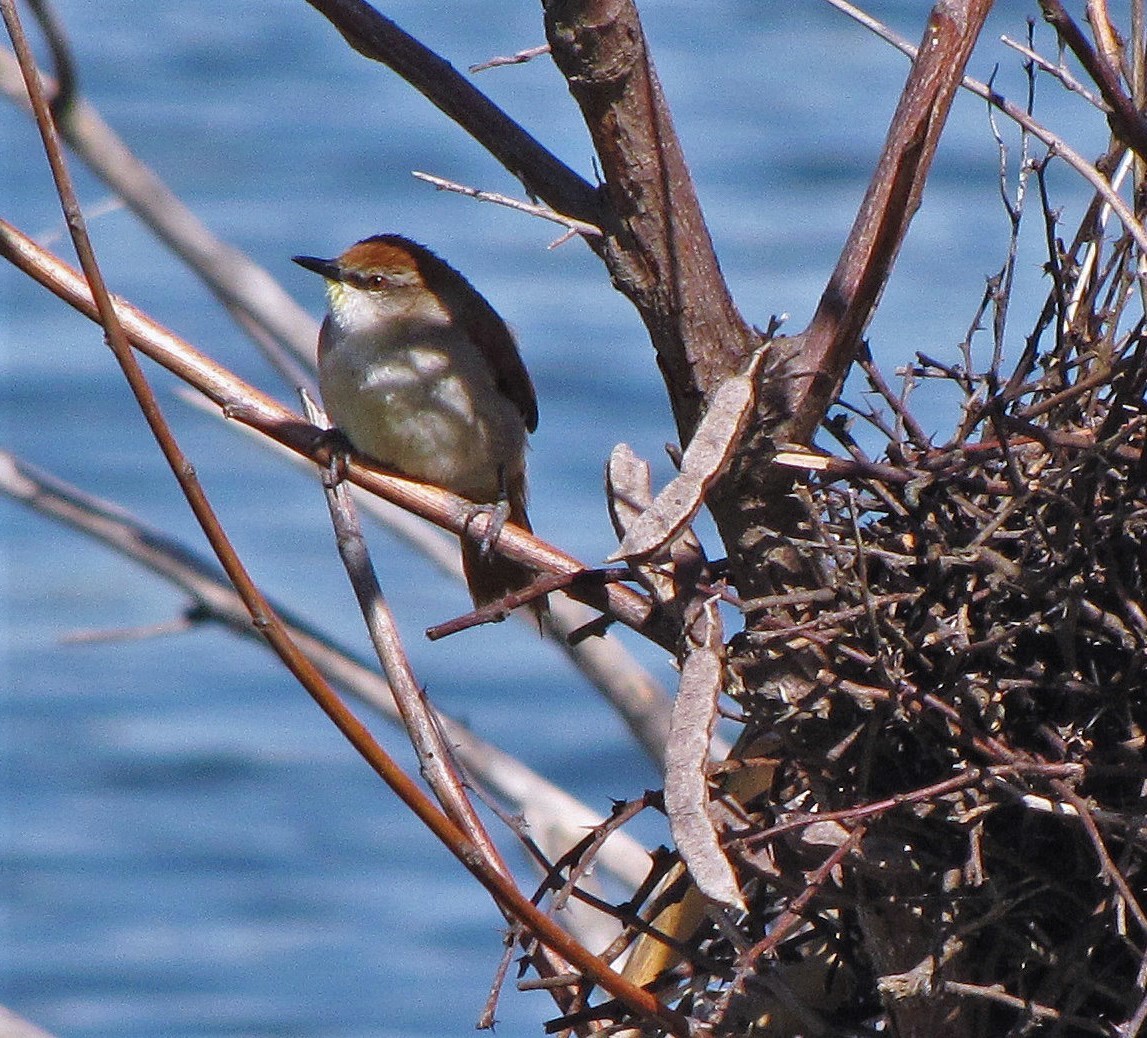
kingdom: Animalia
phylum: Chordata
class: Aves
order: Passeriformes
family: Furnariidae
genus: Certhiaxis
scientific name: Certhiaxis cinnamomeus
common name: Yellow-chinned spinetail
